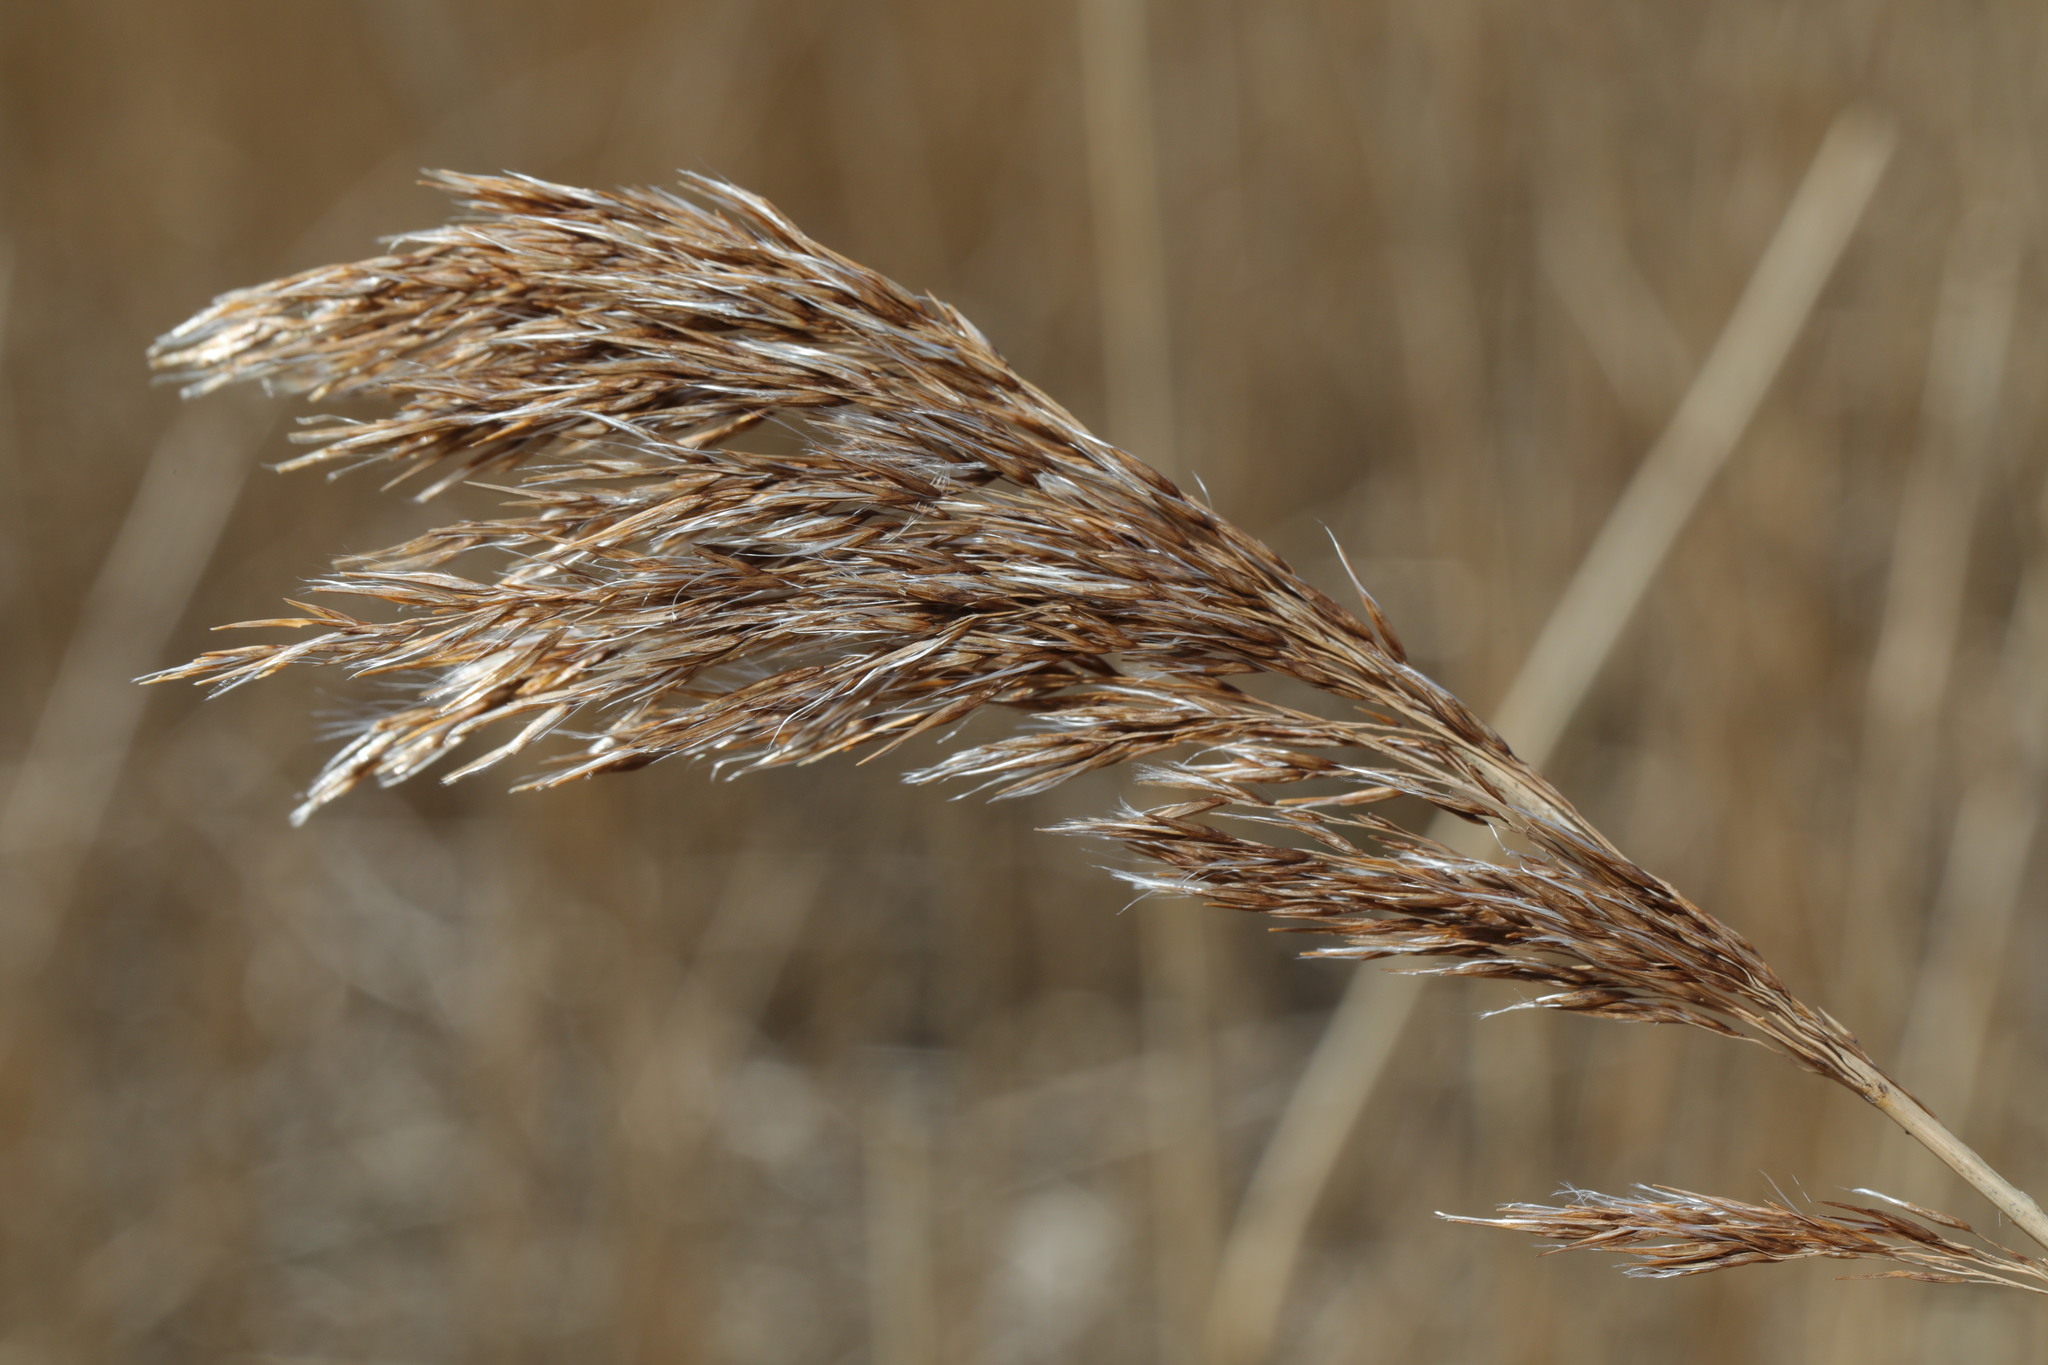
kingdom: Plantae
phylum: Tracheophyta
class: Liliopsida
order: Poales
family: Poaceae
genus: Phragmites
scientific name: Phragmites australis
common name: Common reed
